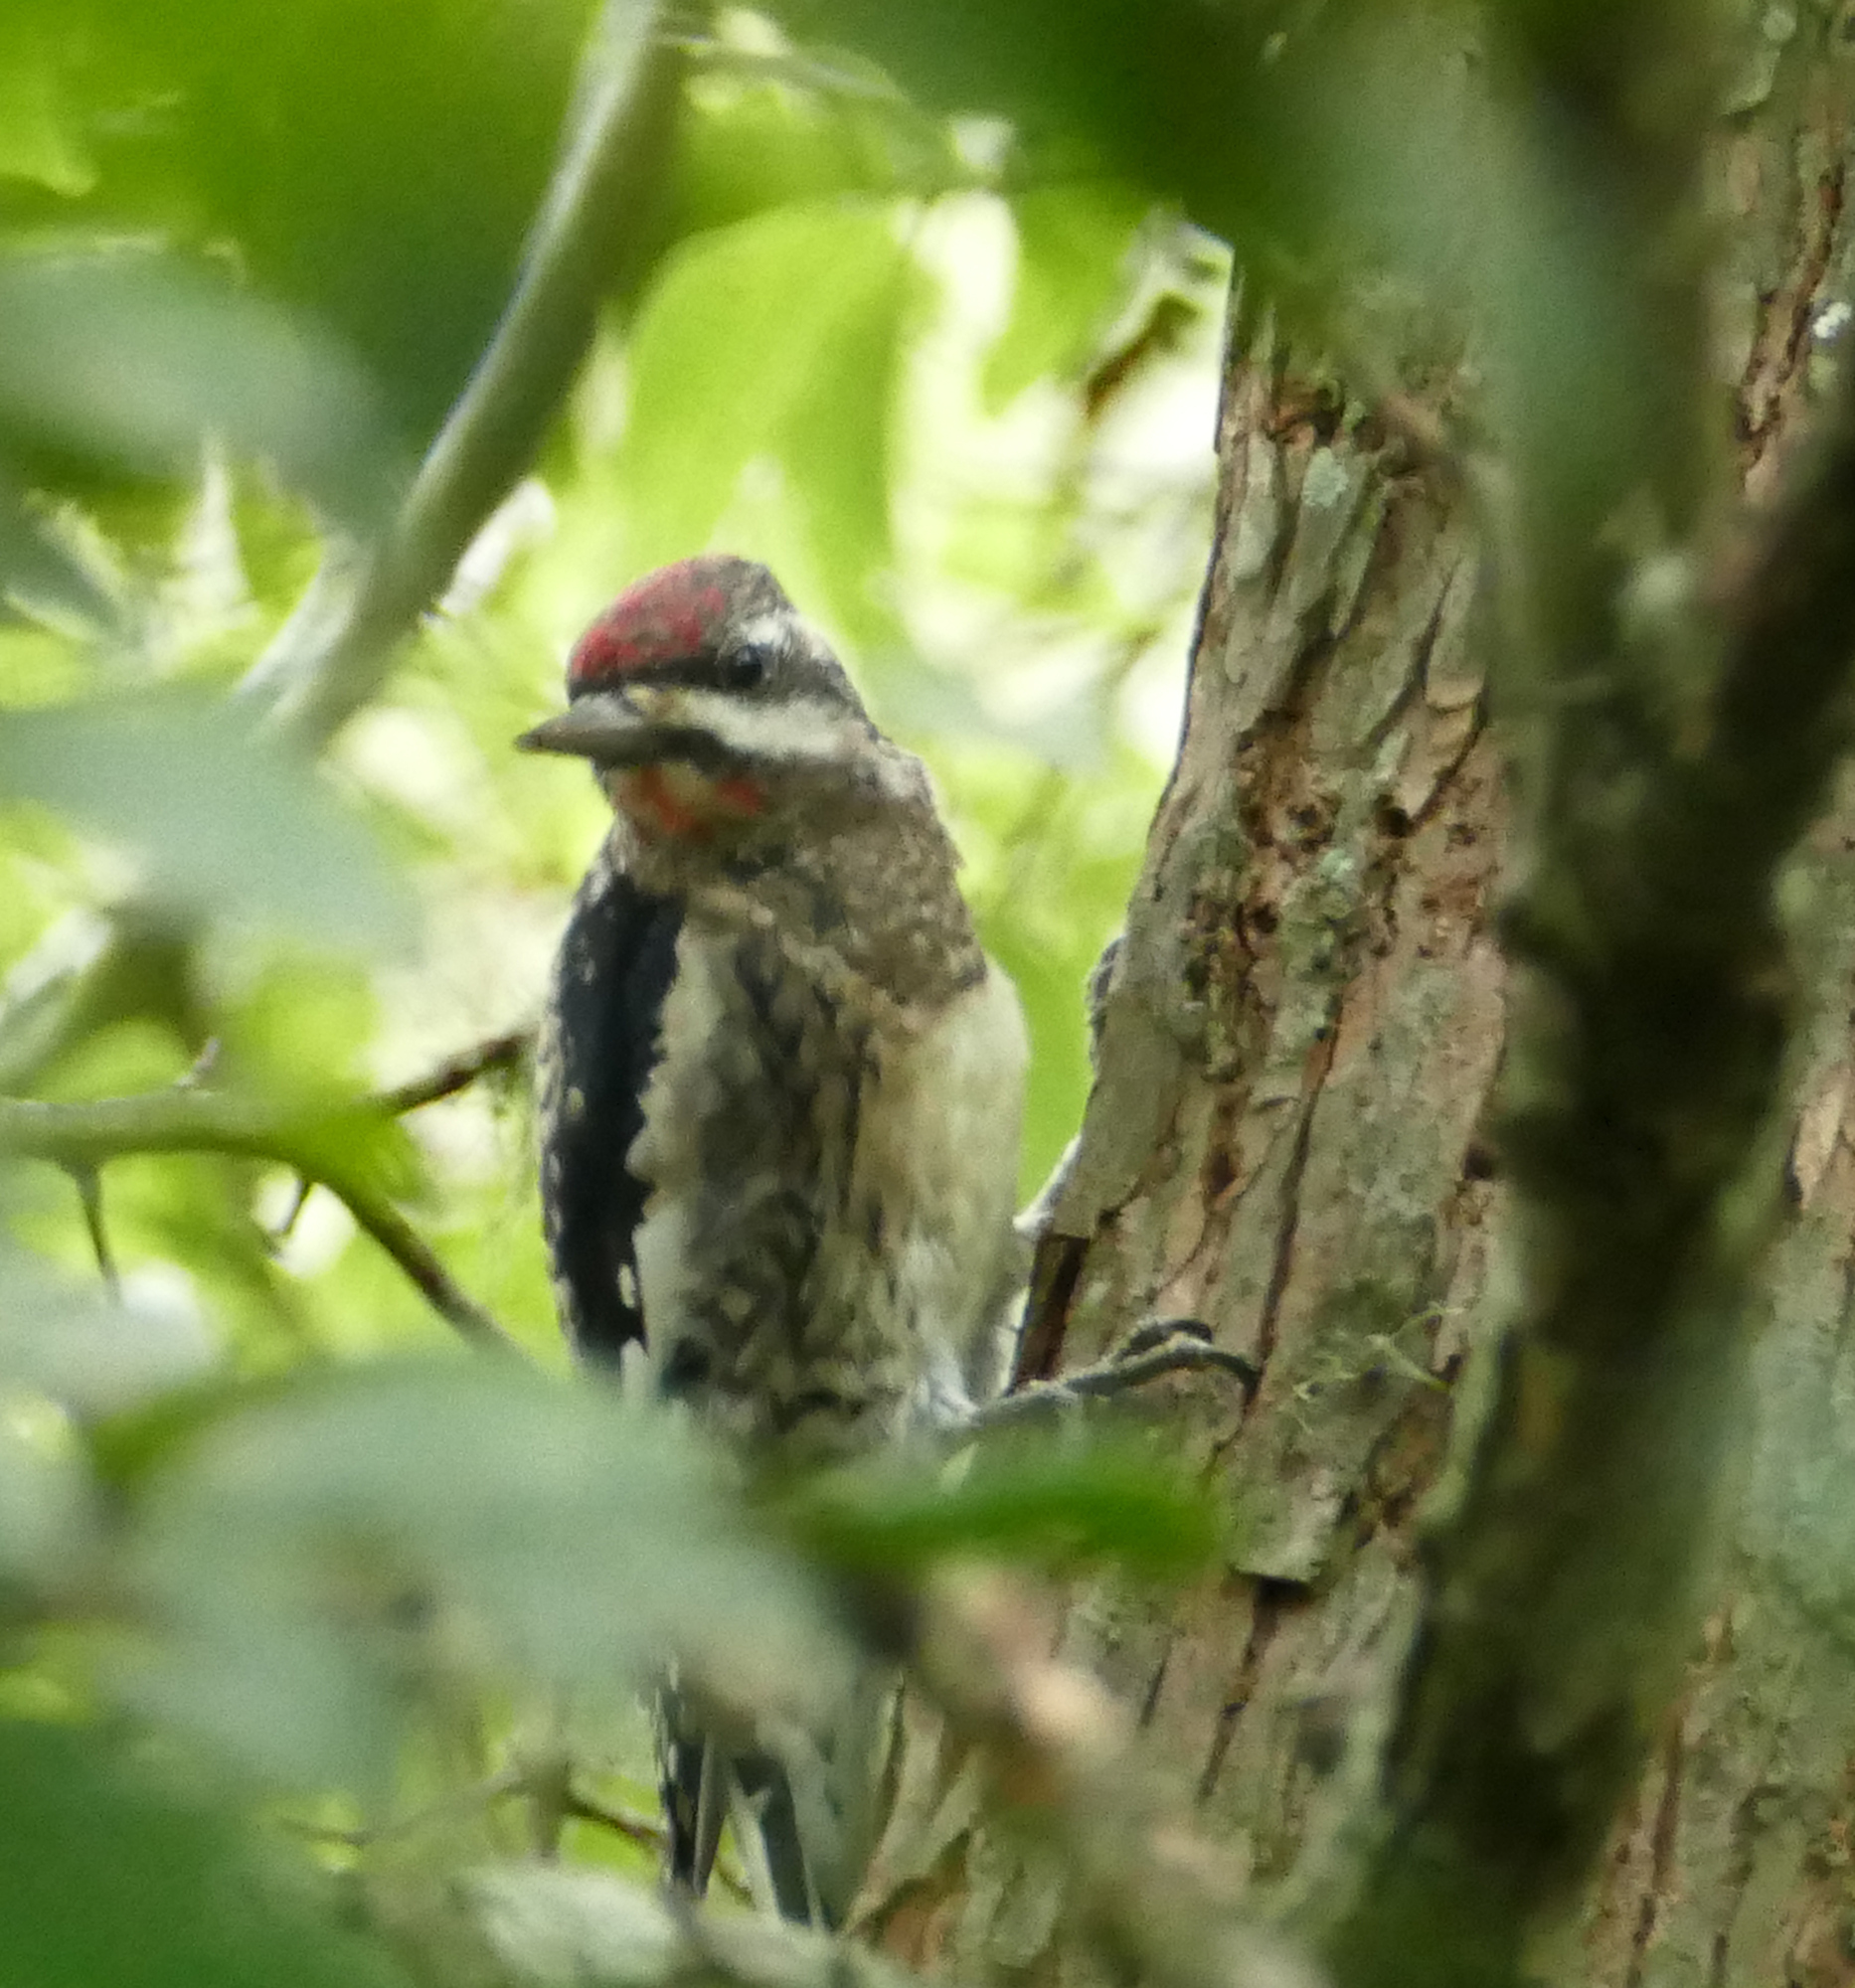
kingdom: Animalia
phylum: Chordata
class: Aves
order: Piciformes
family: Picidae
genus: Sphyrapicus
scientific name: Sphyrapicus varius
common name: Yellow-bellied sapsucker
